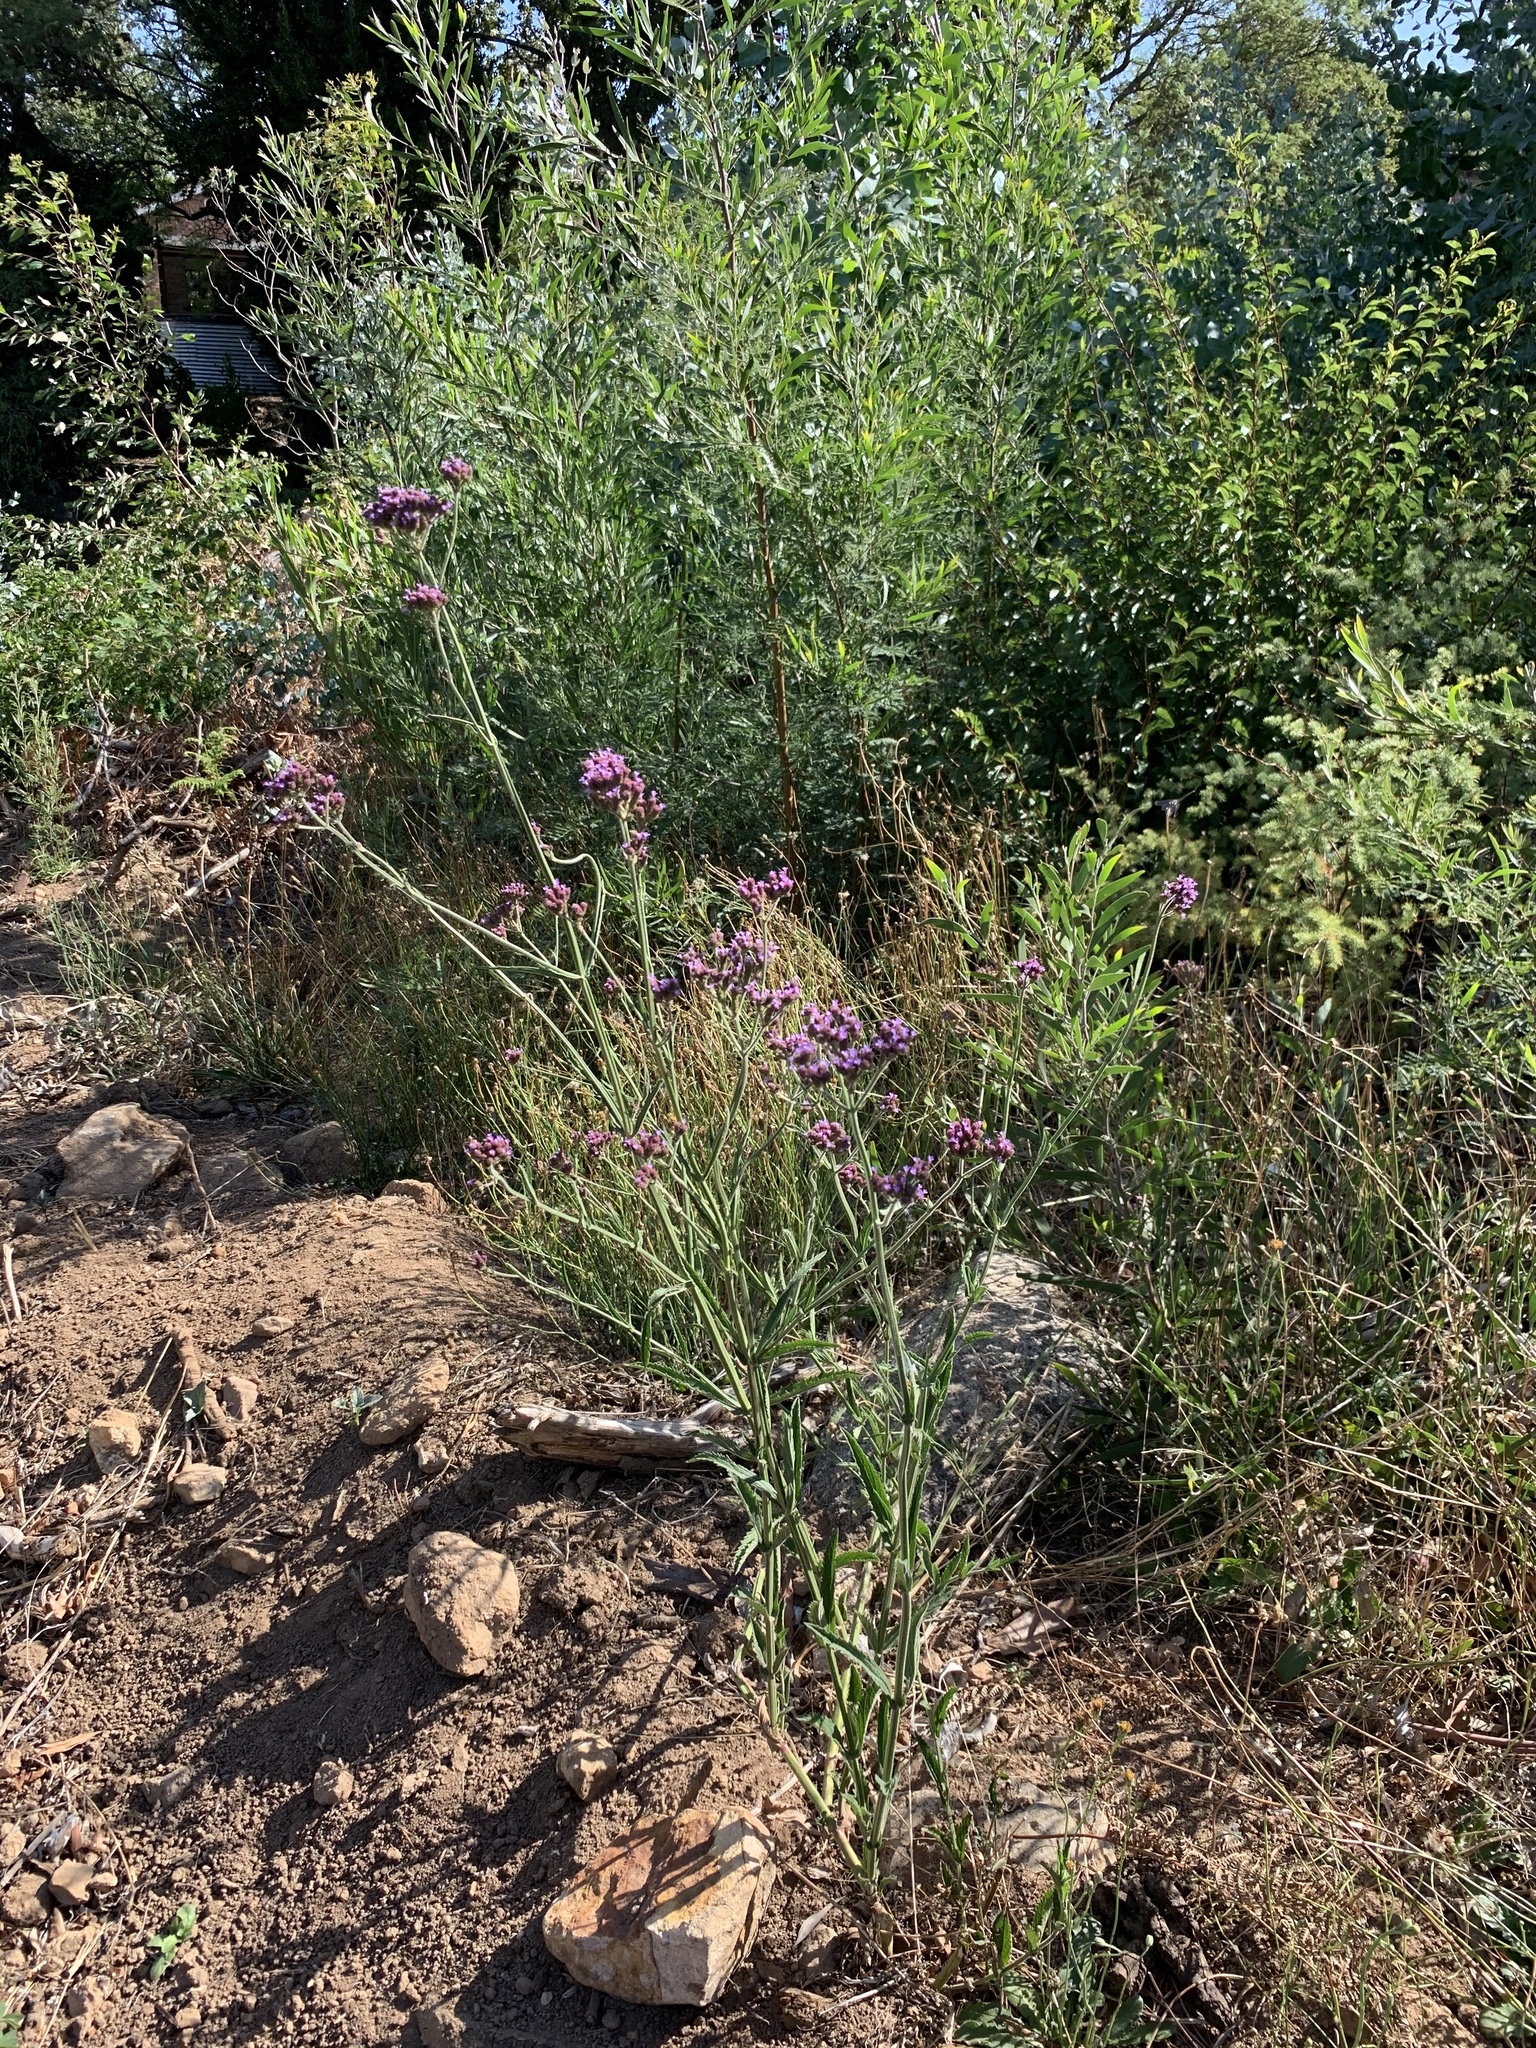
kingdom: Plantae
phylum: Tracheophyta
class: Magnoliopsida
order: Lamiales
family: Verbenaceae
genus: Verbena
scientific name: Verbena bonariensis
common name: Purpletop vervain
